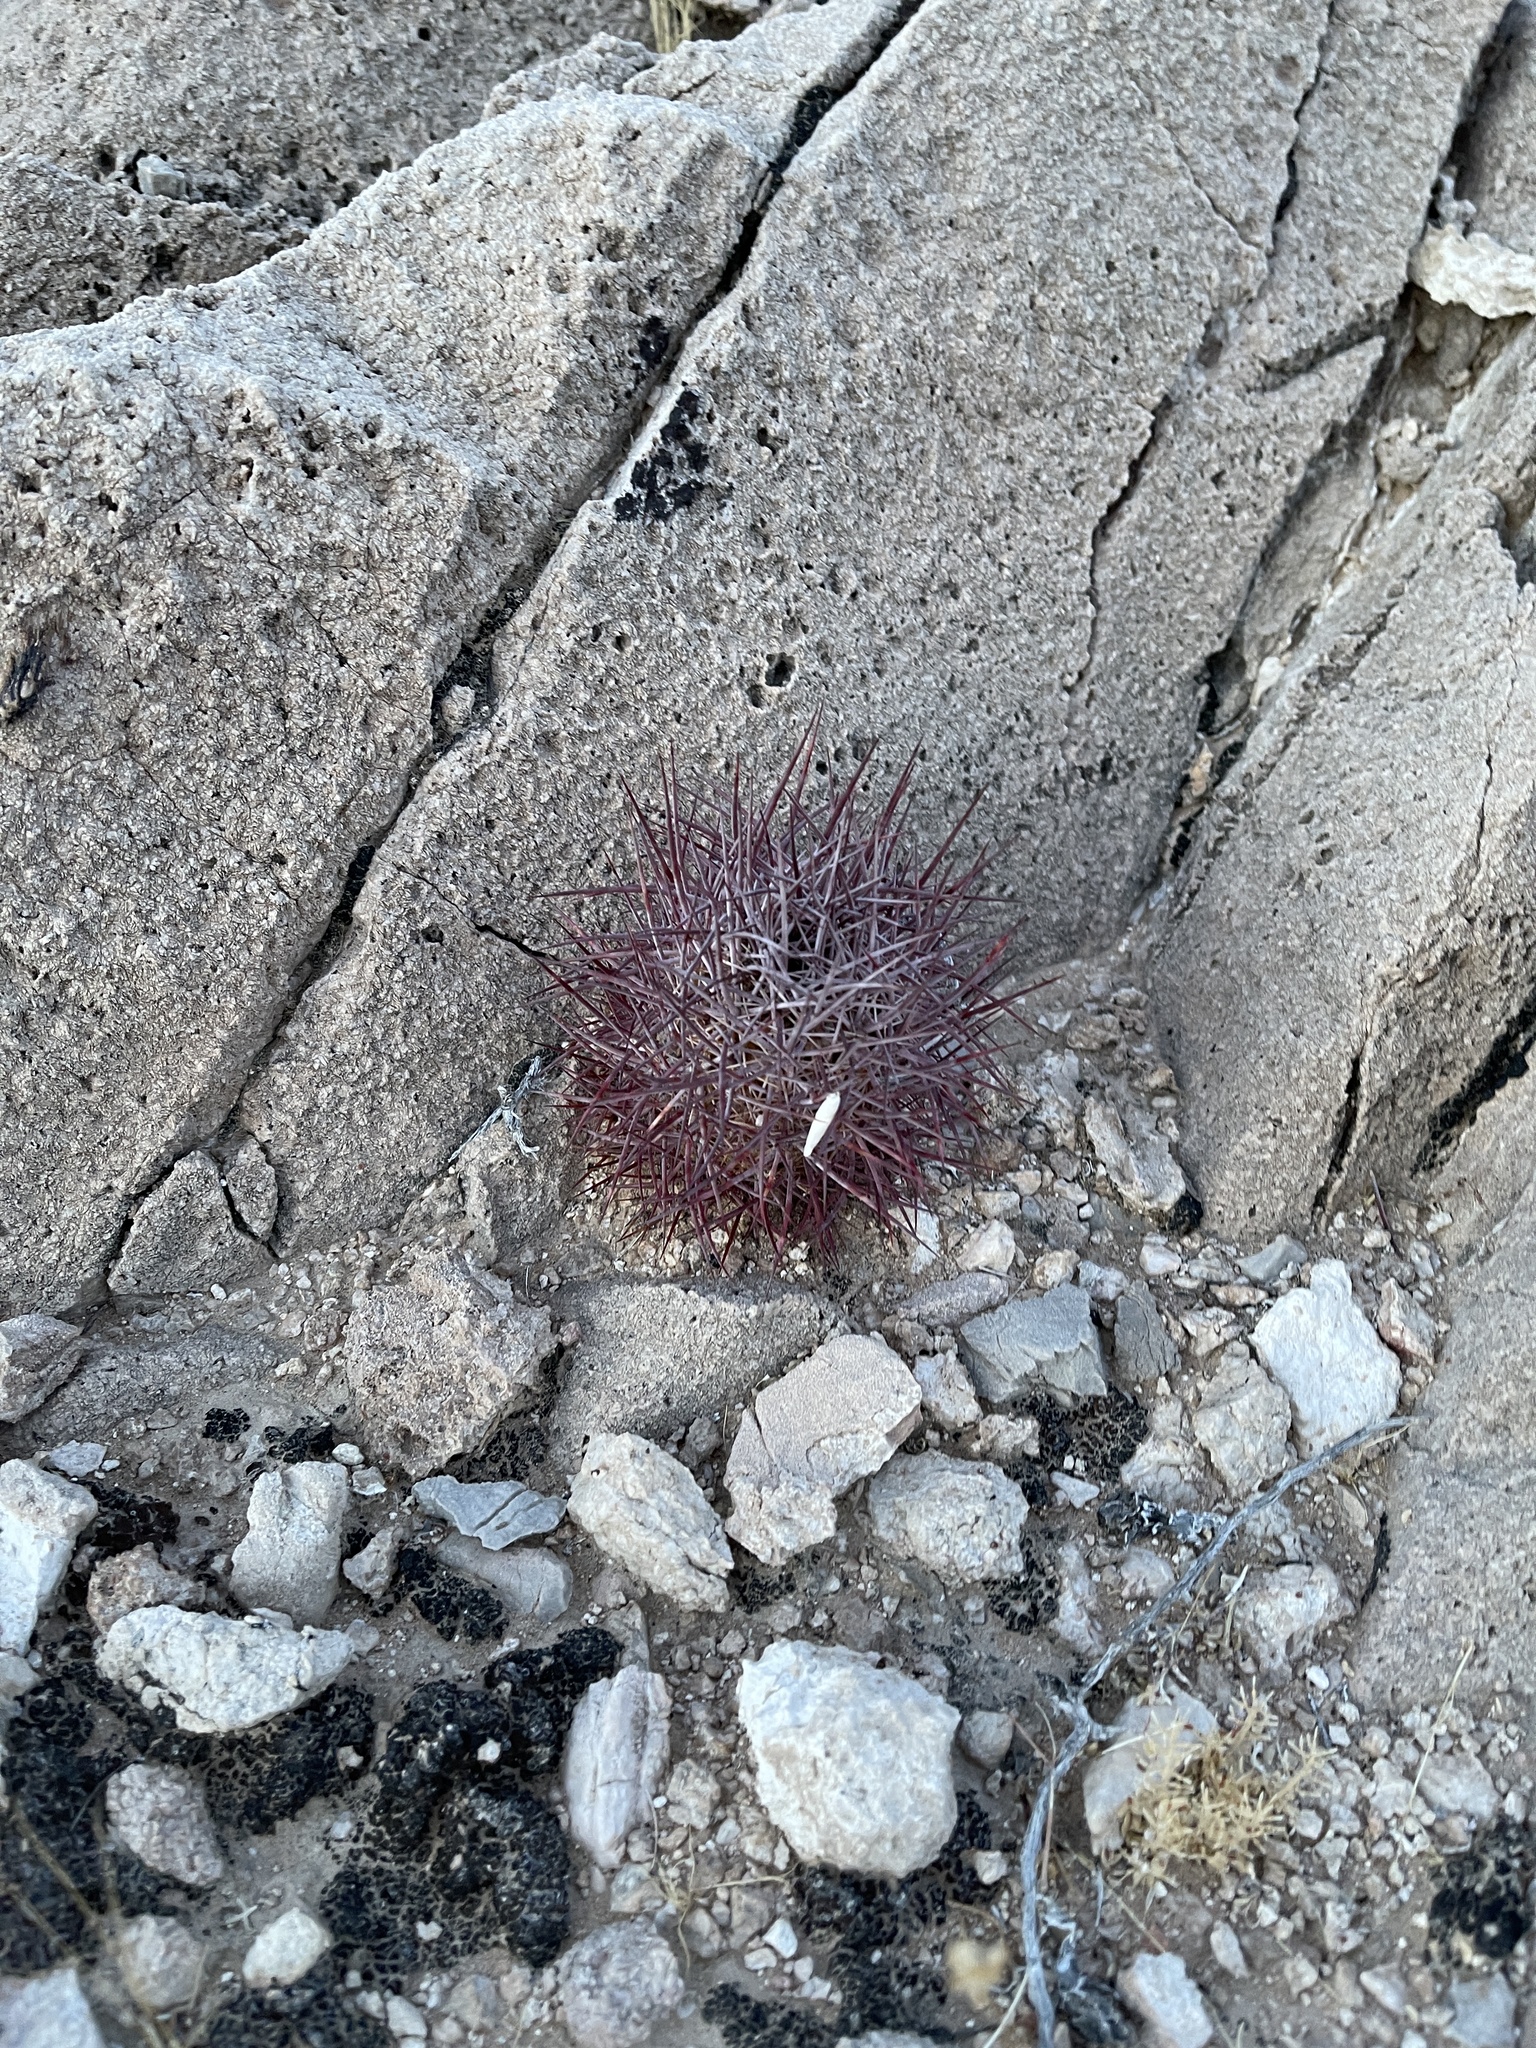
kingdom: Plantae
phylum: Tracheophyta
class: Magnoliopsida
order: Caryophyllales
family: Cactaceae
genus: Sclerocactus
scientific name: Sclerocactus johnsonii
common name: Eight-spine fishhook cactus
